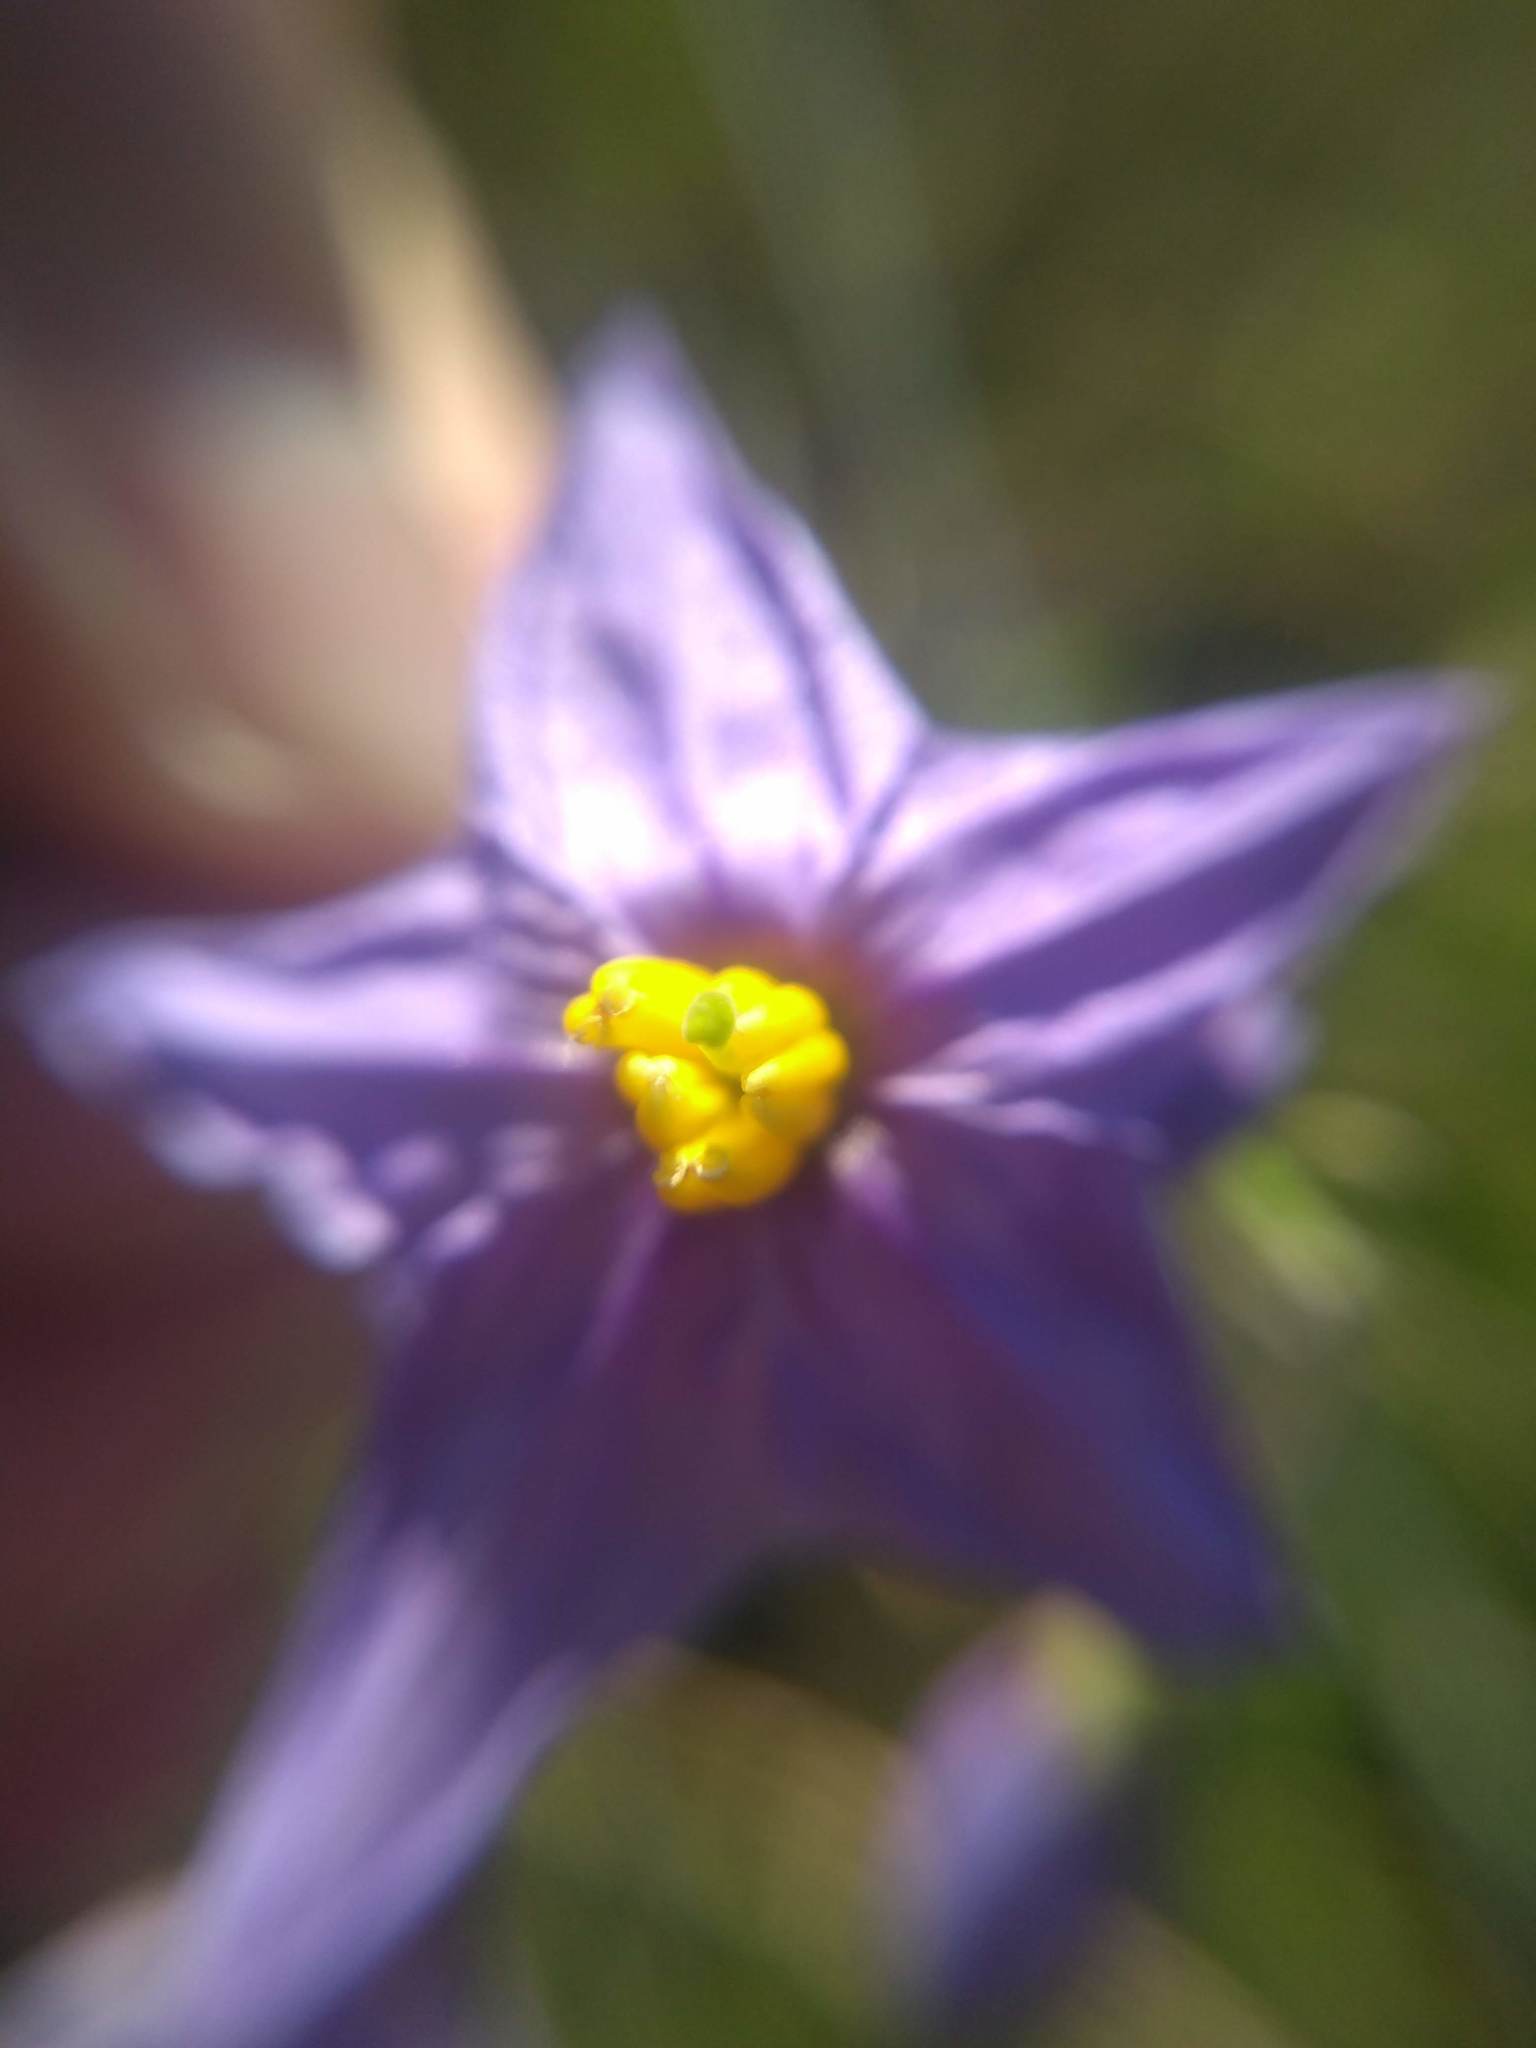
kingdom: Plantae
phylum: Tracheophyta
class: Magnoliopsida
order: Solanales
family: Solanaceae
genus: Solanum
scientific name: Solanum amygdalifolium
